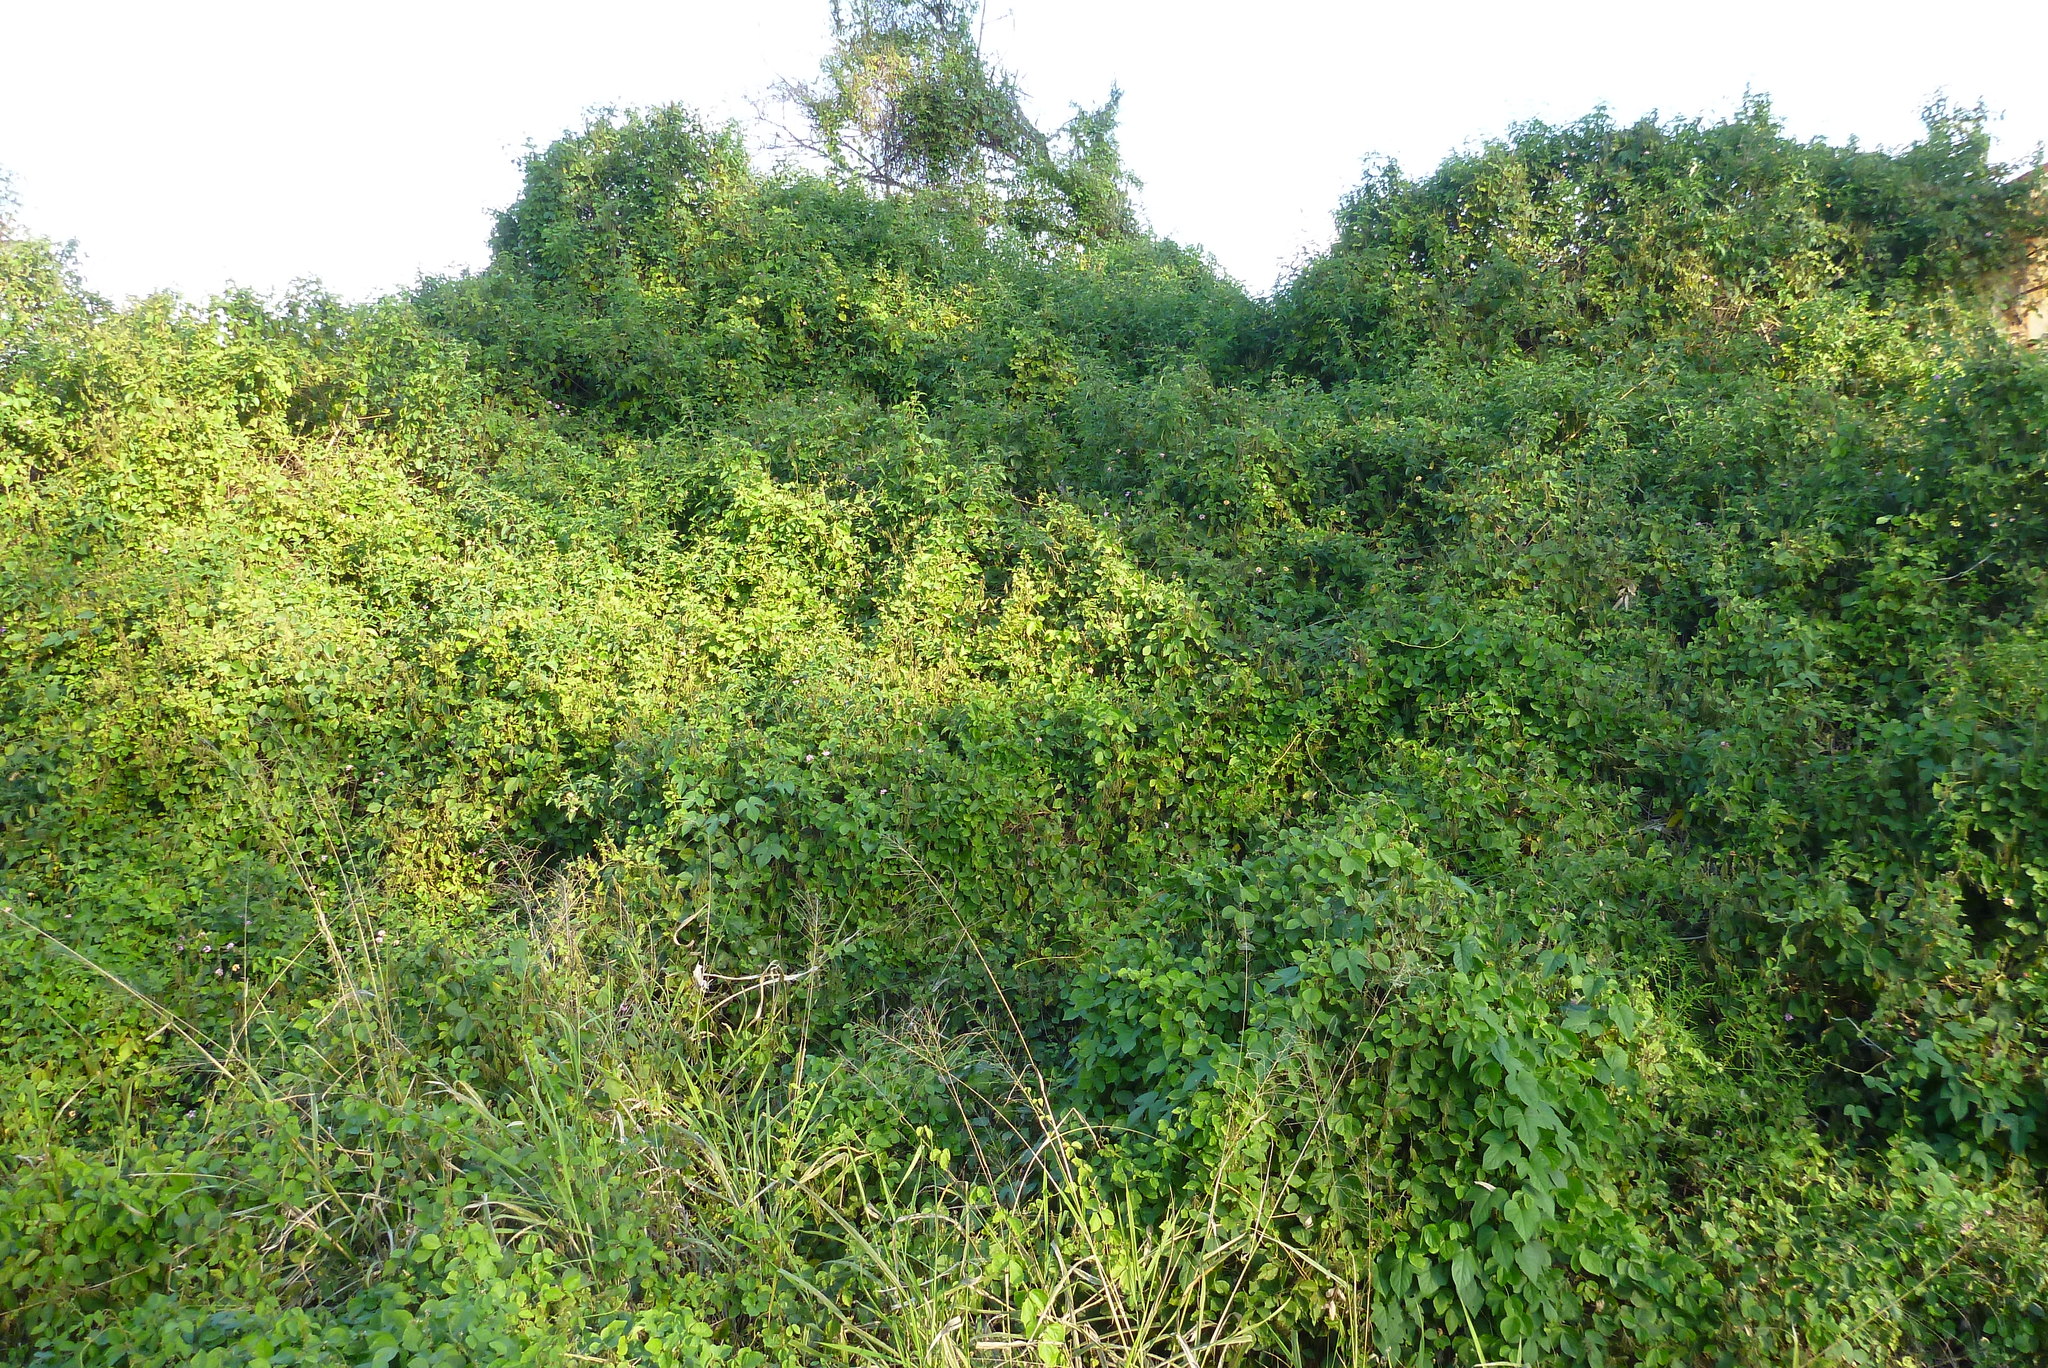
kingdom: Plantae
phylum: Tracheophyta
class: Magnoliopsida
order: Fabales
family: Fabaceae
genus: Neonotonia
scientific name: Neonotonia wightii
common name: Perennial soybean
